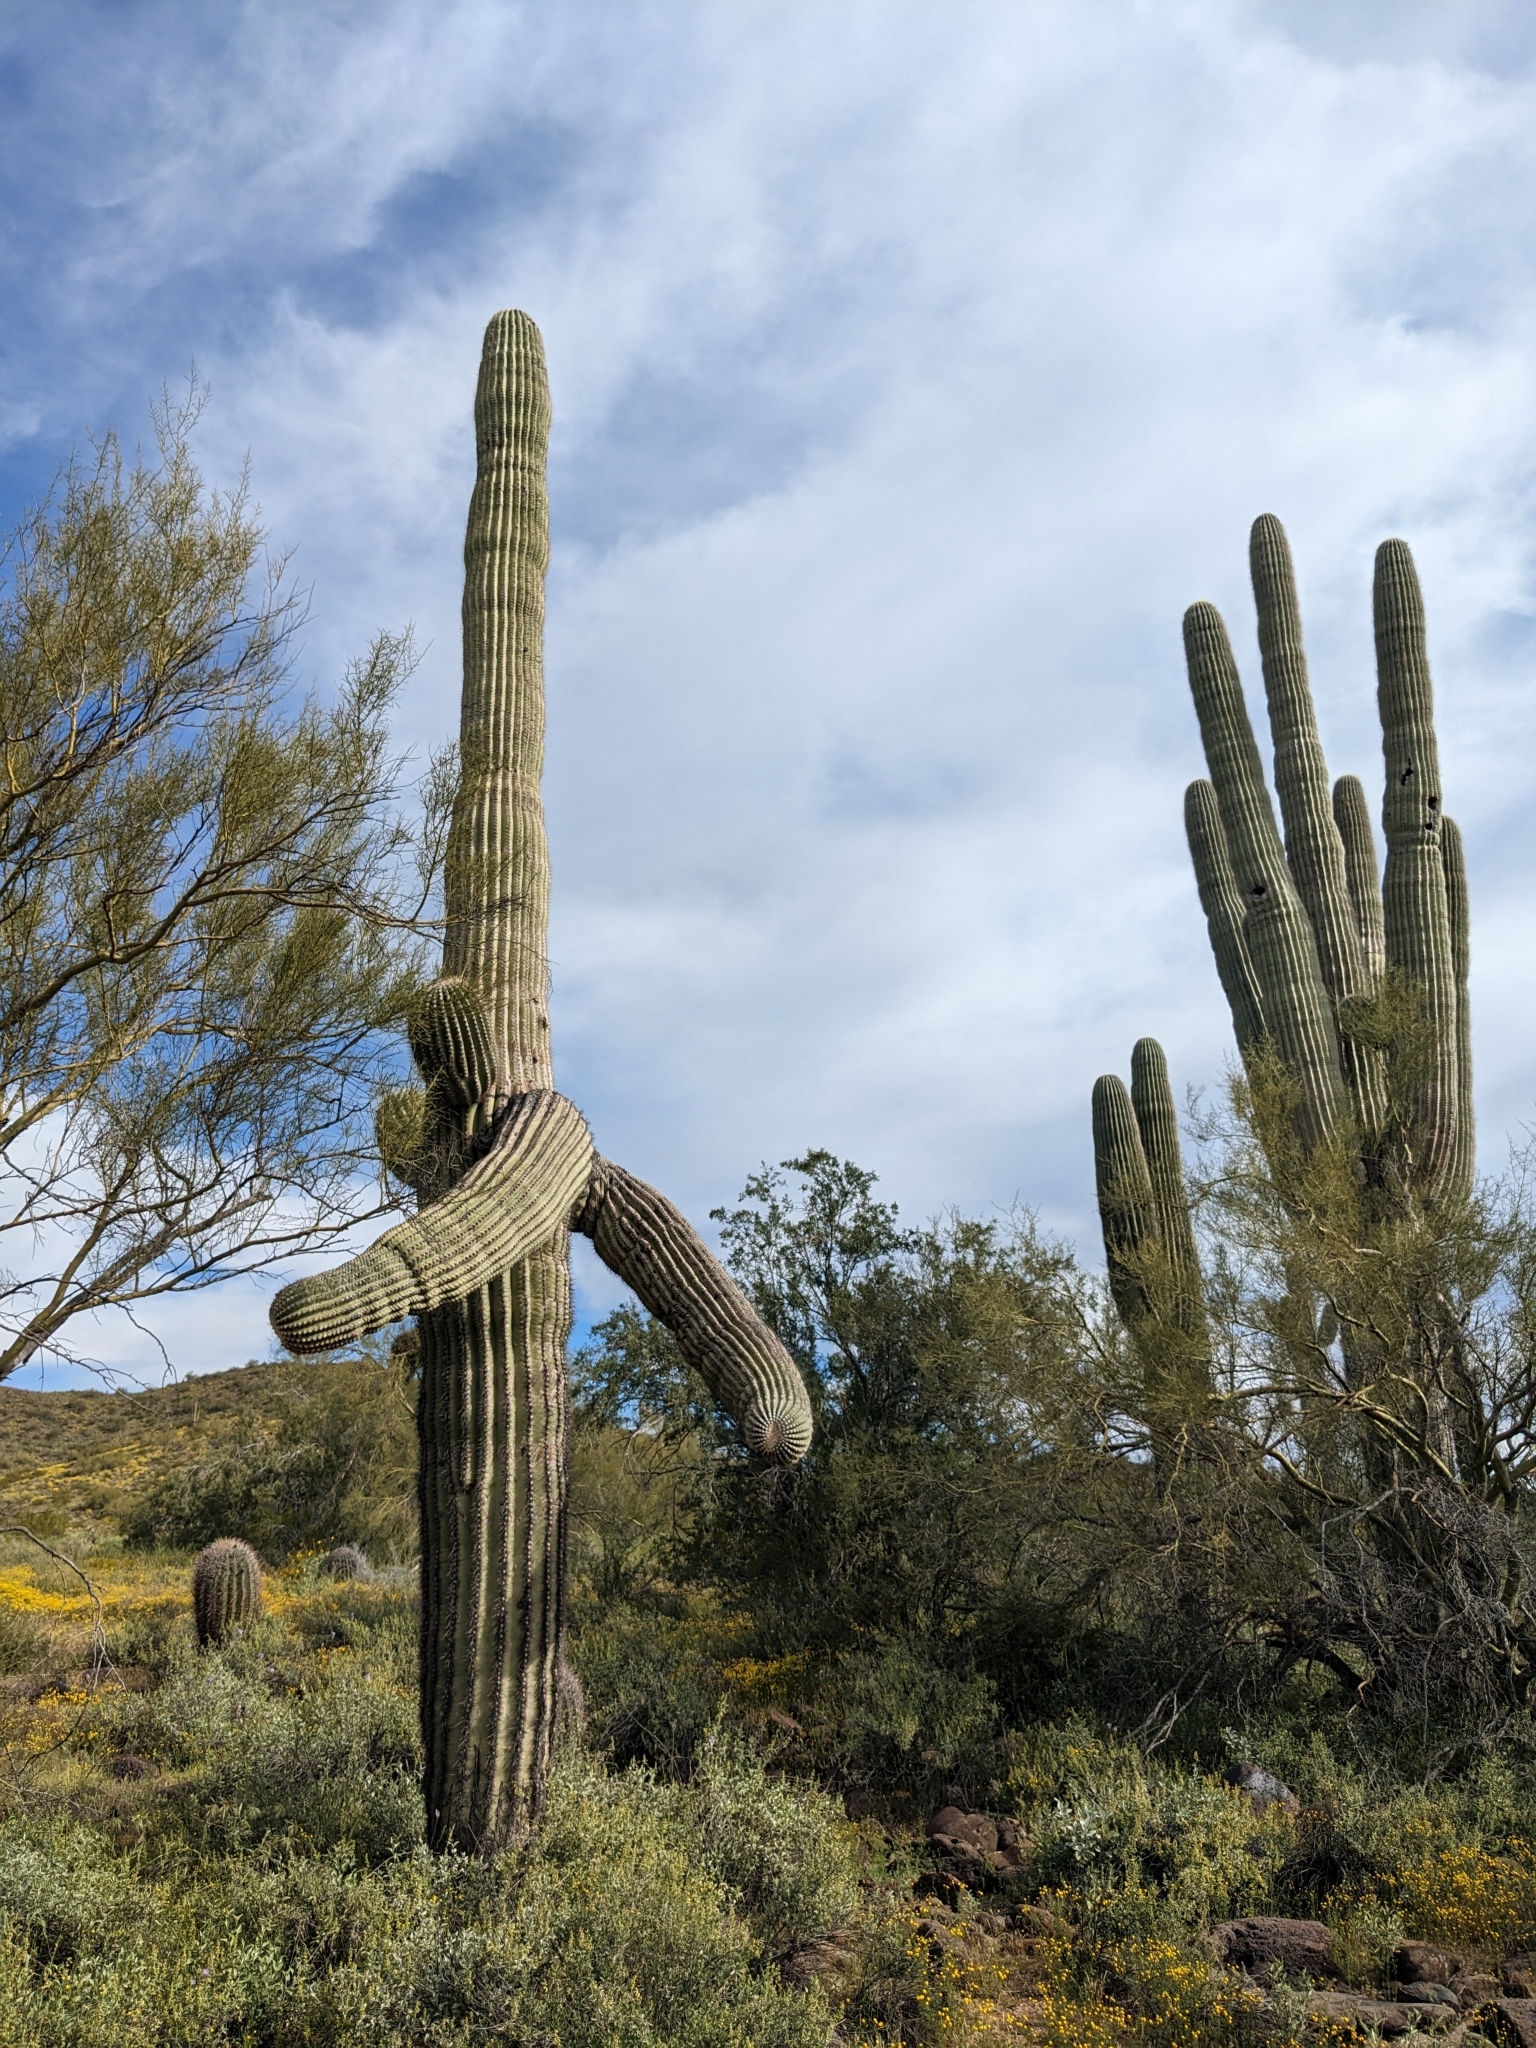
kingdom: Plantae
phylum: Tracheophyta
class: Magnoliopsida
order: Caryophyllales
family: Cactaceae
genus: Carnegiea
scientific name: Carnegiea gigantea
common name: Saguaro
